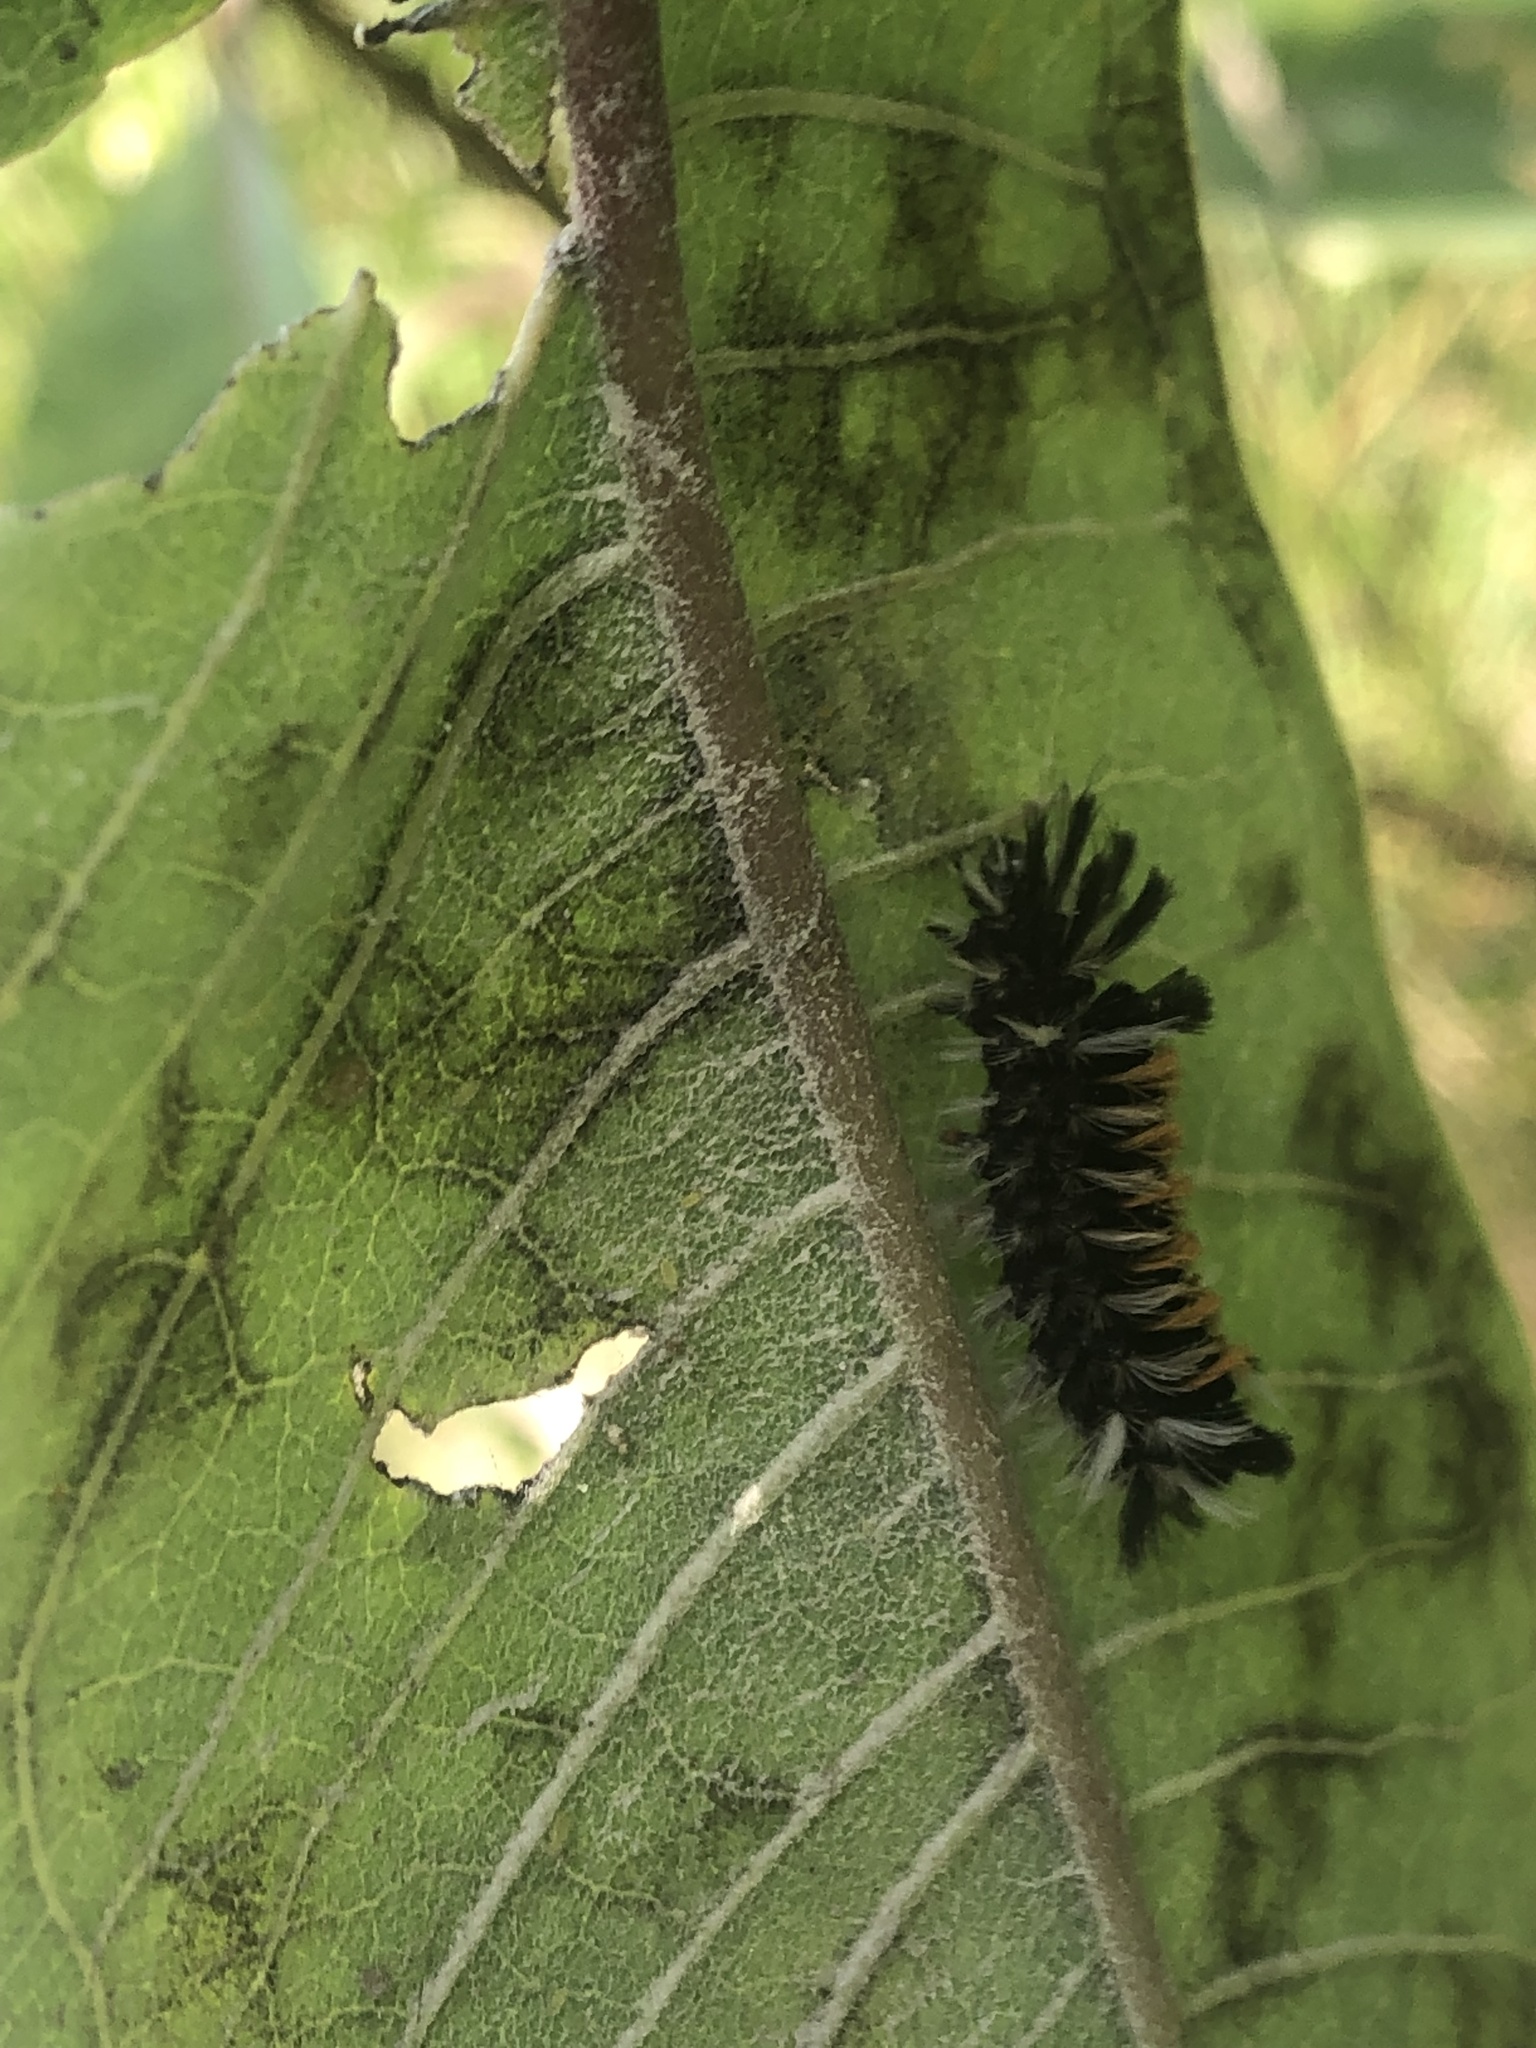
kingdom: Animalia
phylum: Arthropoda
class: Insecta
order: Lepidoptera
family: Erebidae
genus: Euchaetes
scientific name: Euchaetes egle
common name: Milkweed tussock moth
